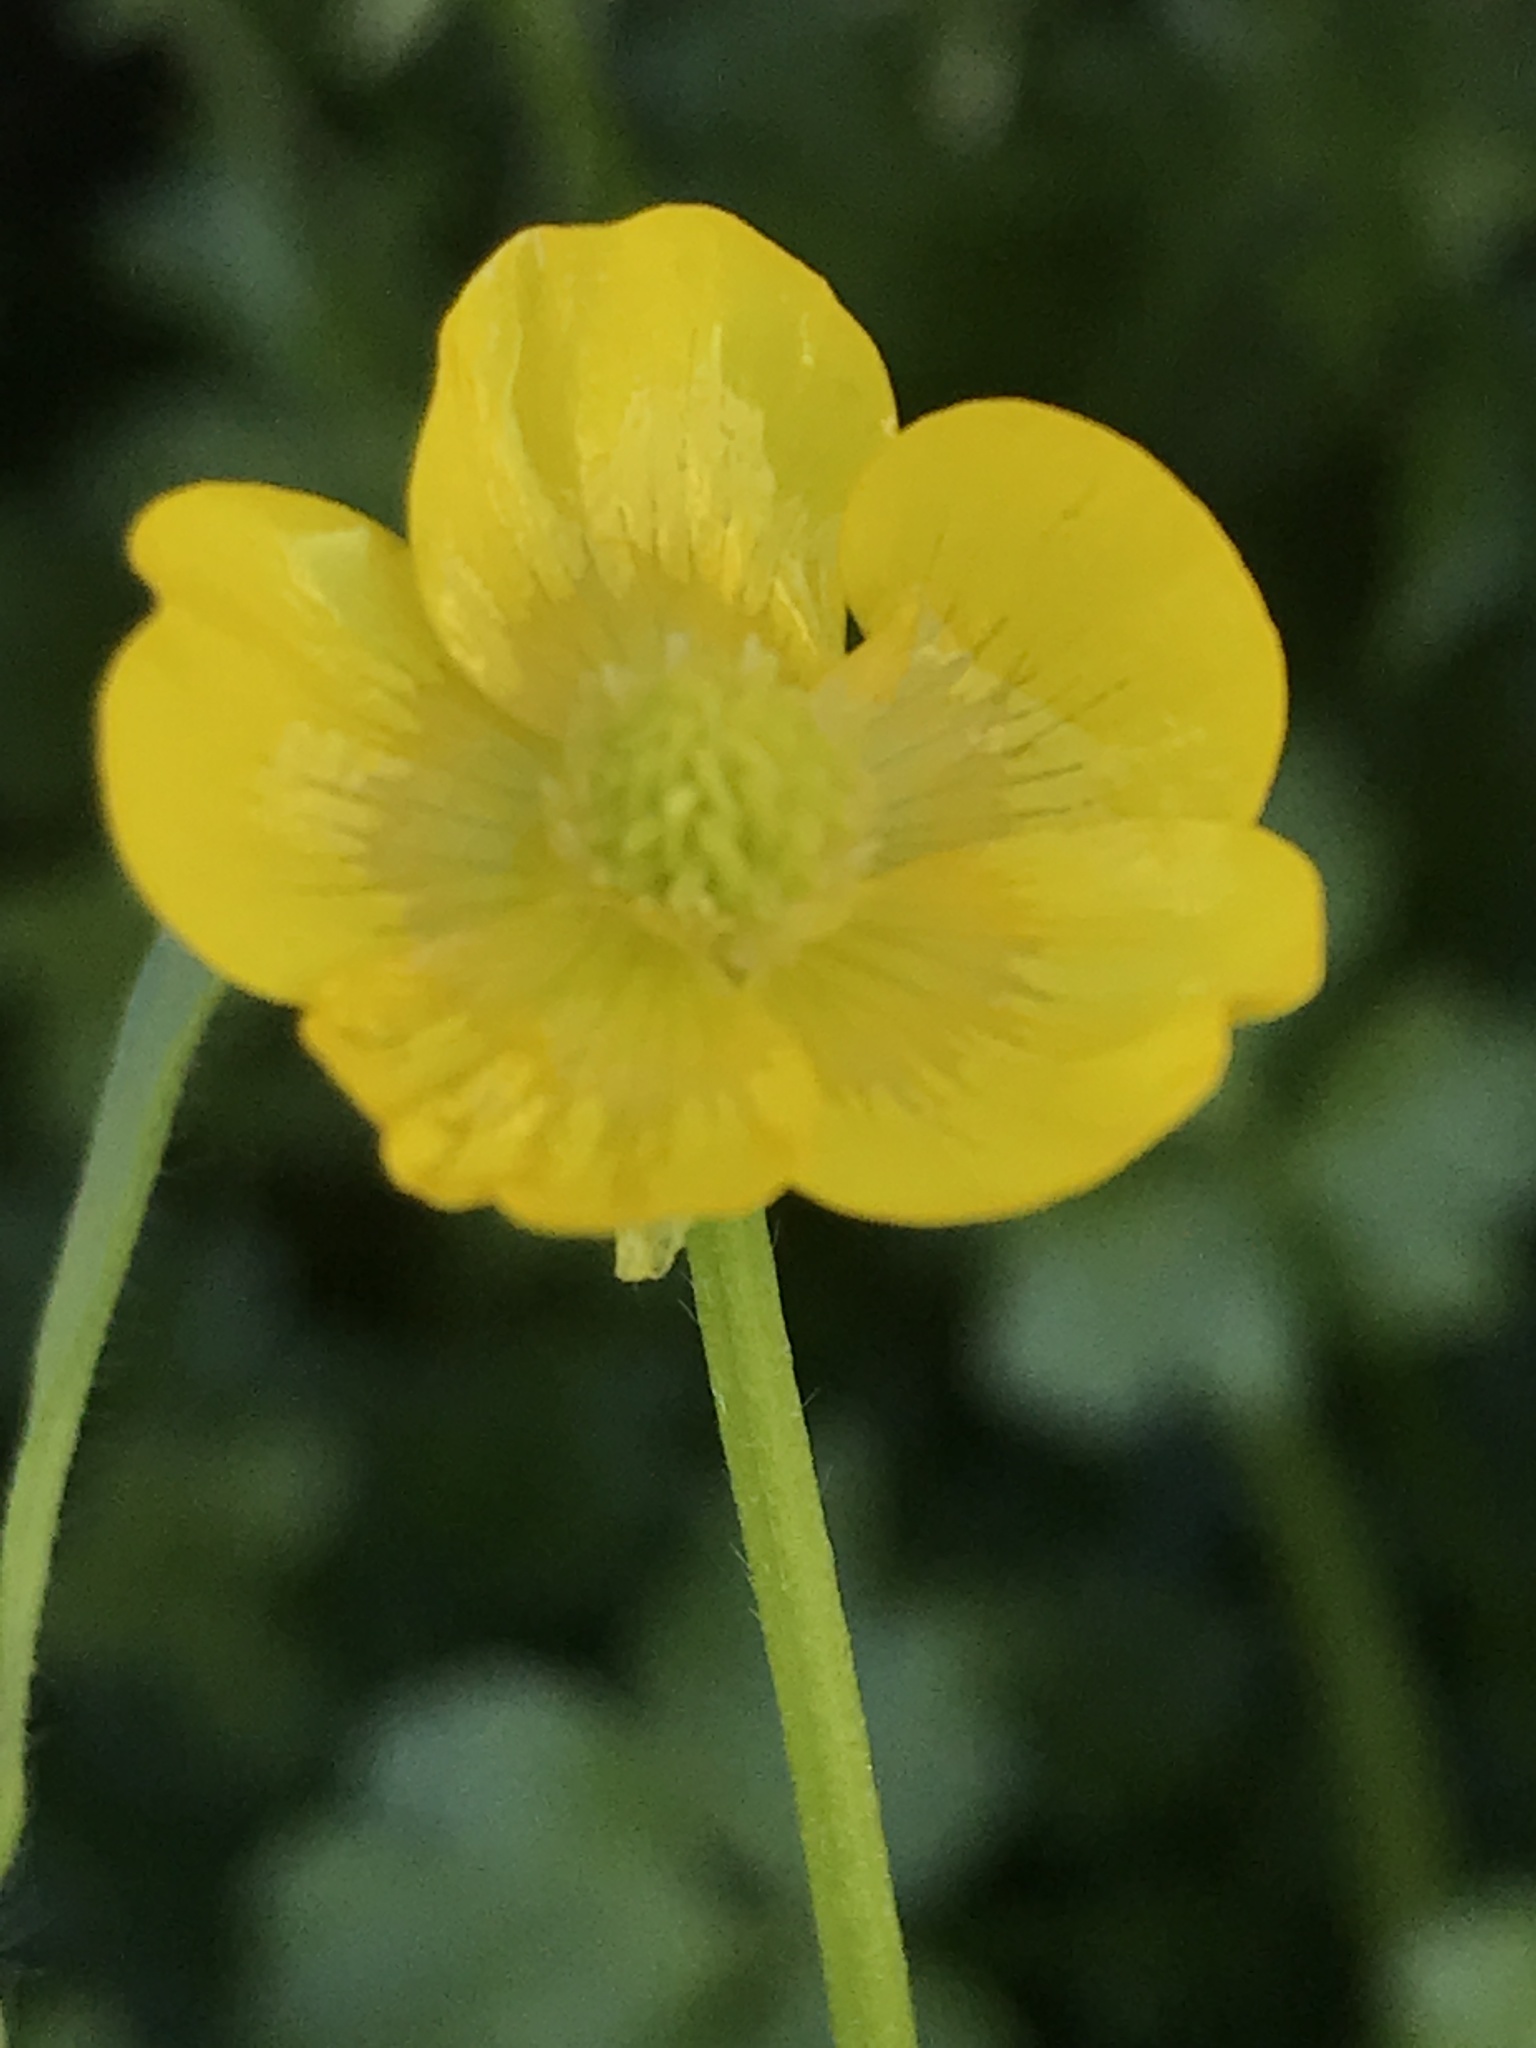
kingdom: Plantae
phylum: Tracheophyta
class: Magnoliopsida
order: Ranunculales
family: Ranunculaceae
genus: Ranunculus
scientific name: Ranunculus repens
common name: Creeping buttercup
